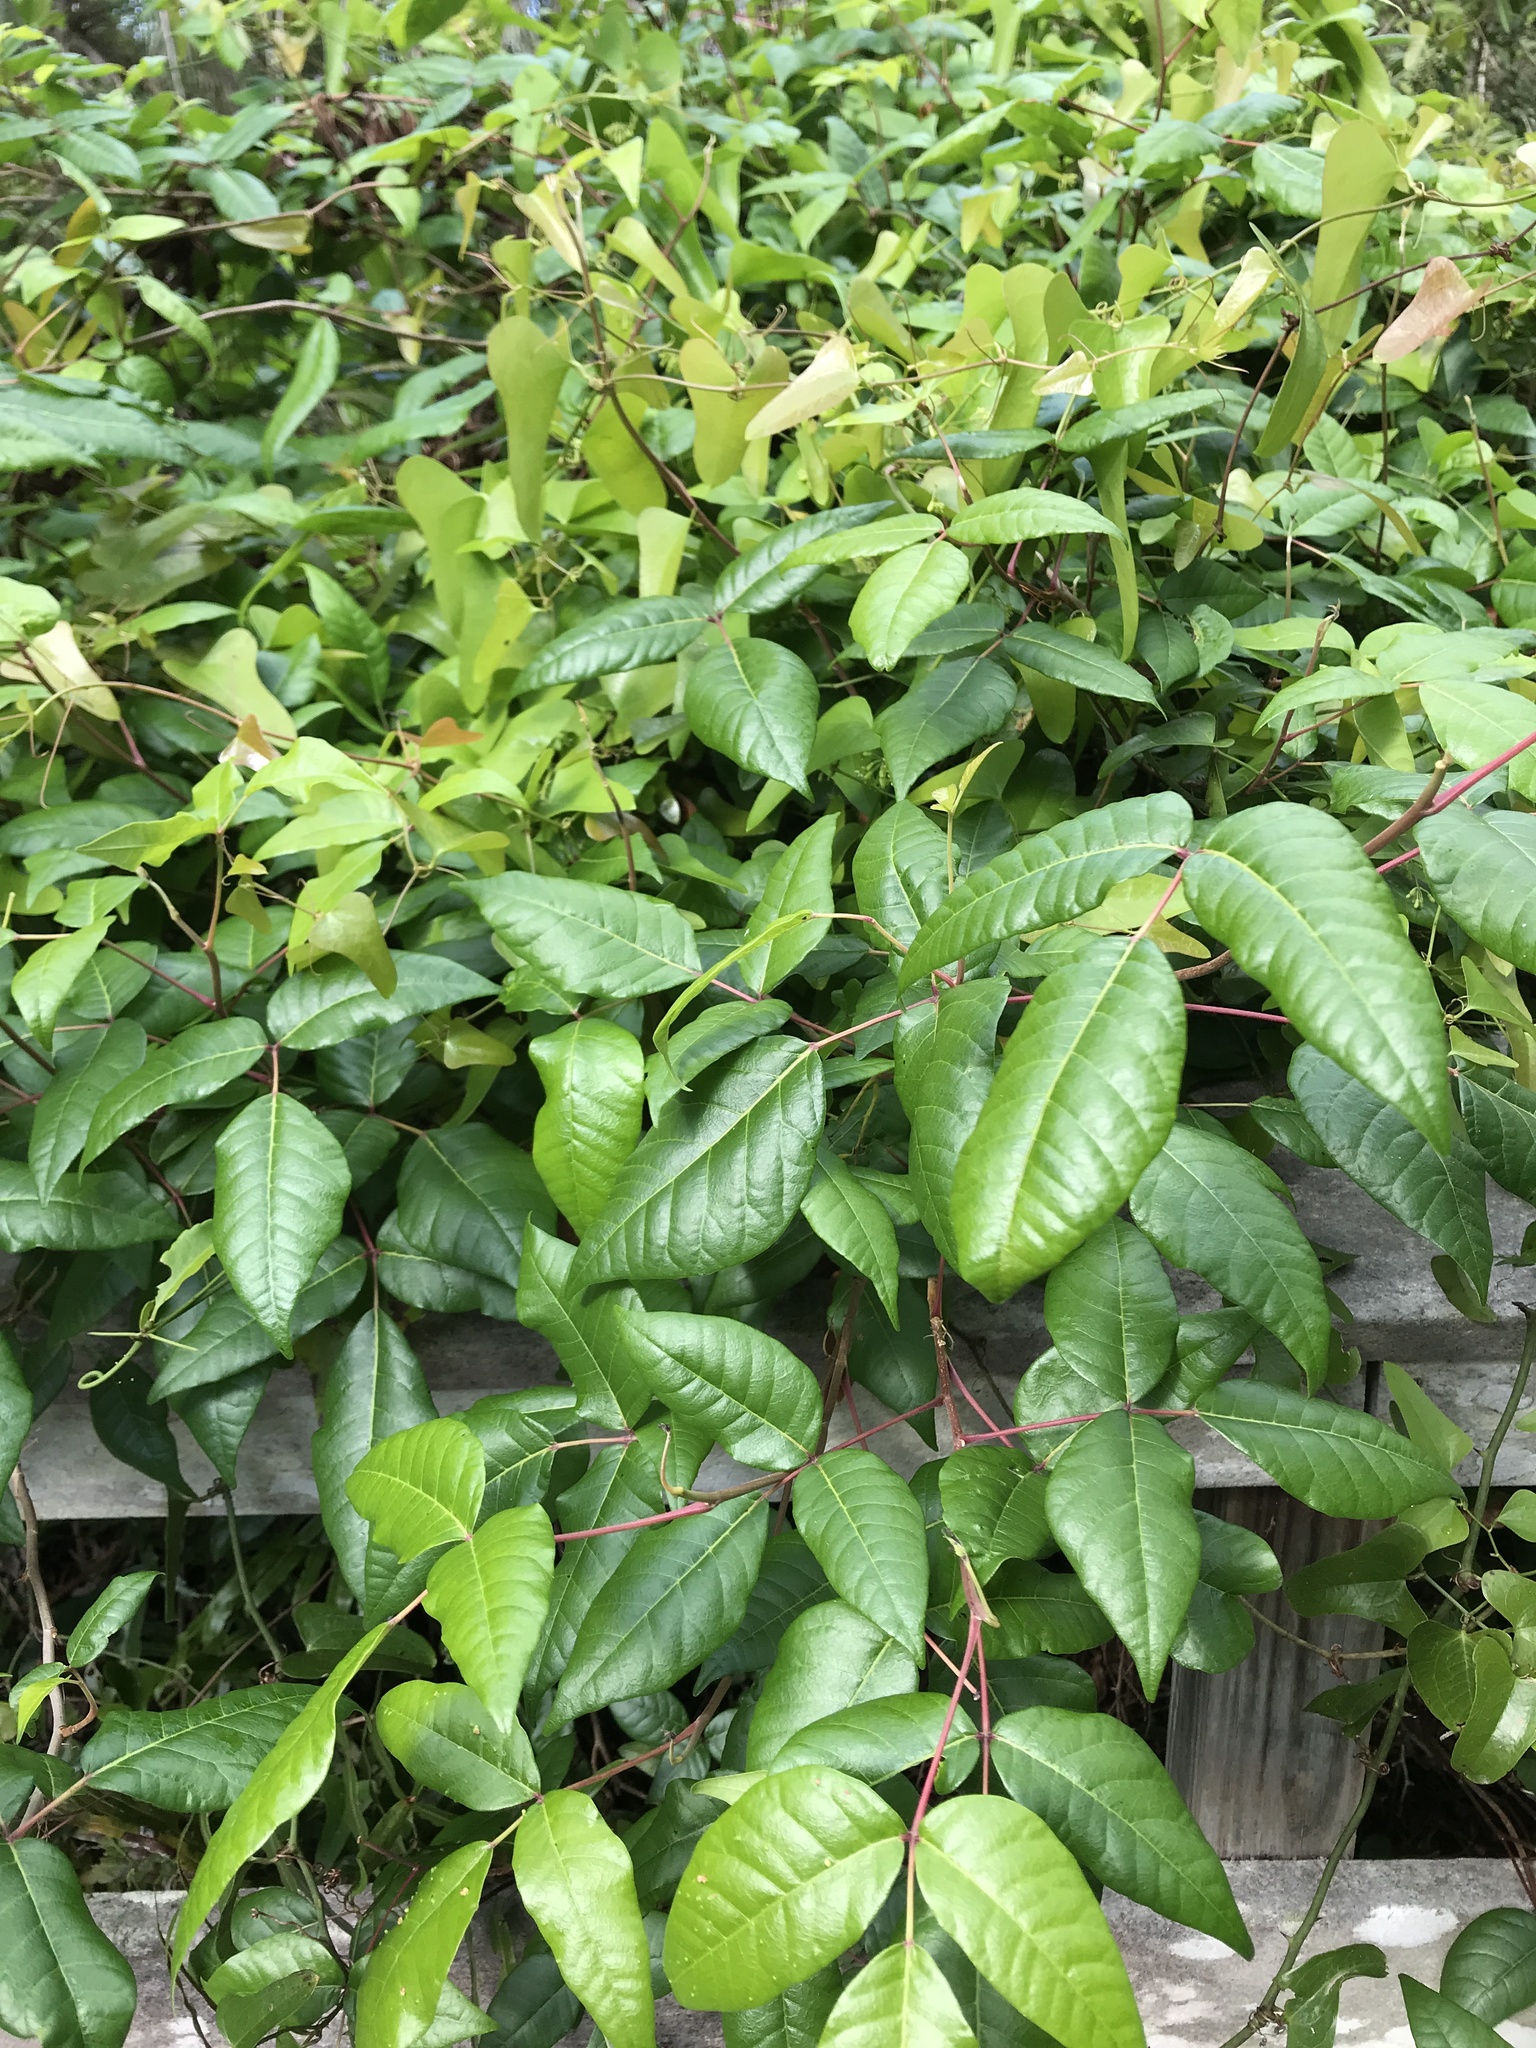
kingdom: Plantae
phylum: Tracheophyta
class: Magnoliopsida
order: Sapindales
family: Anacardiaceae
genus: Toxicodendron
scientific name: Toxicodendron radicans
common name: Poison ivy
